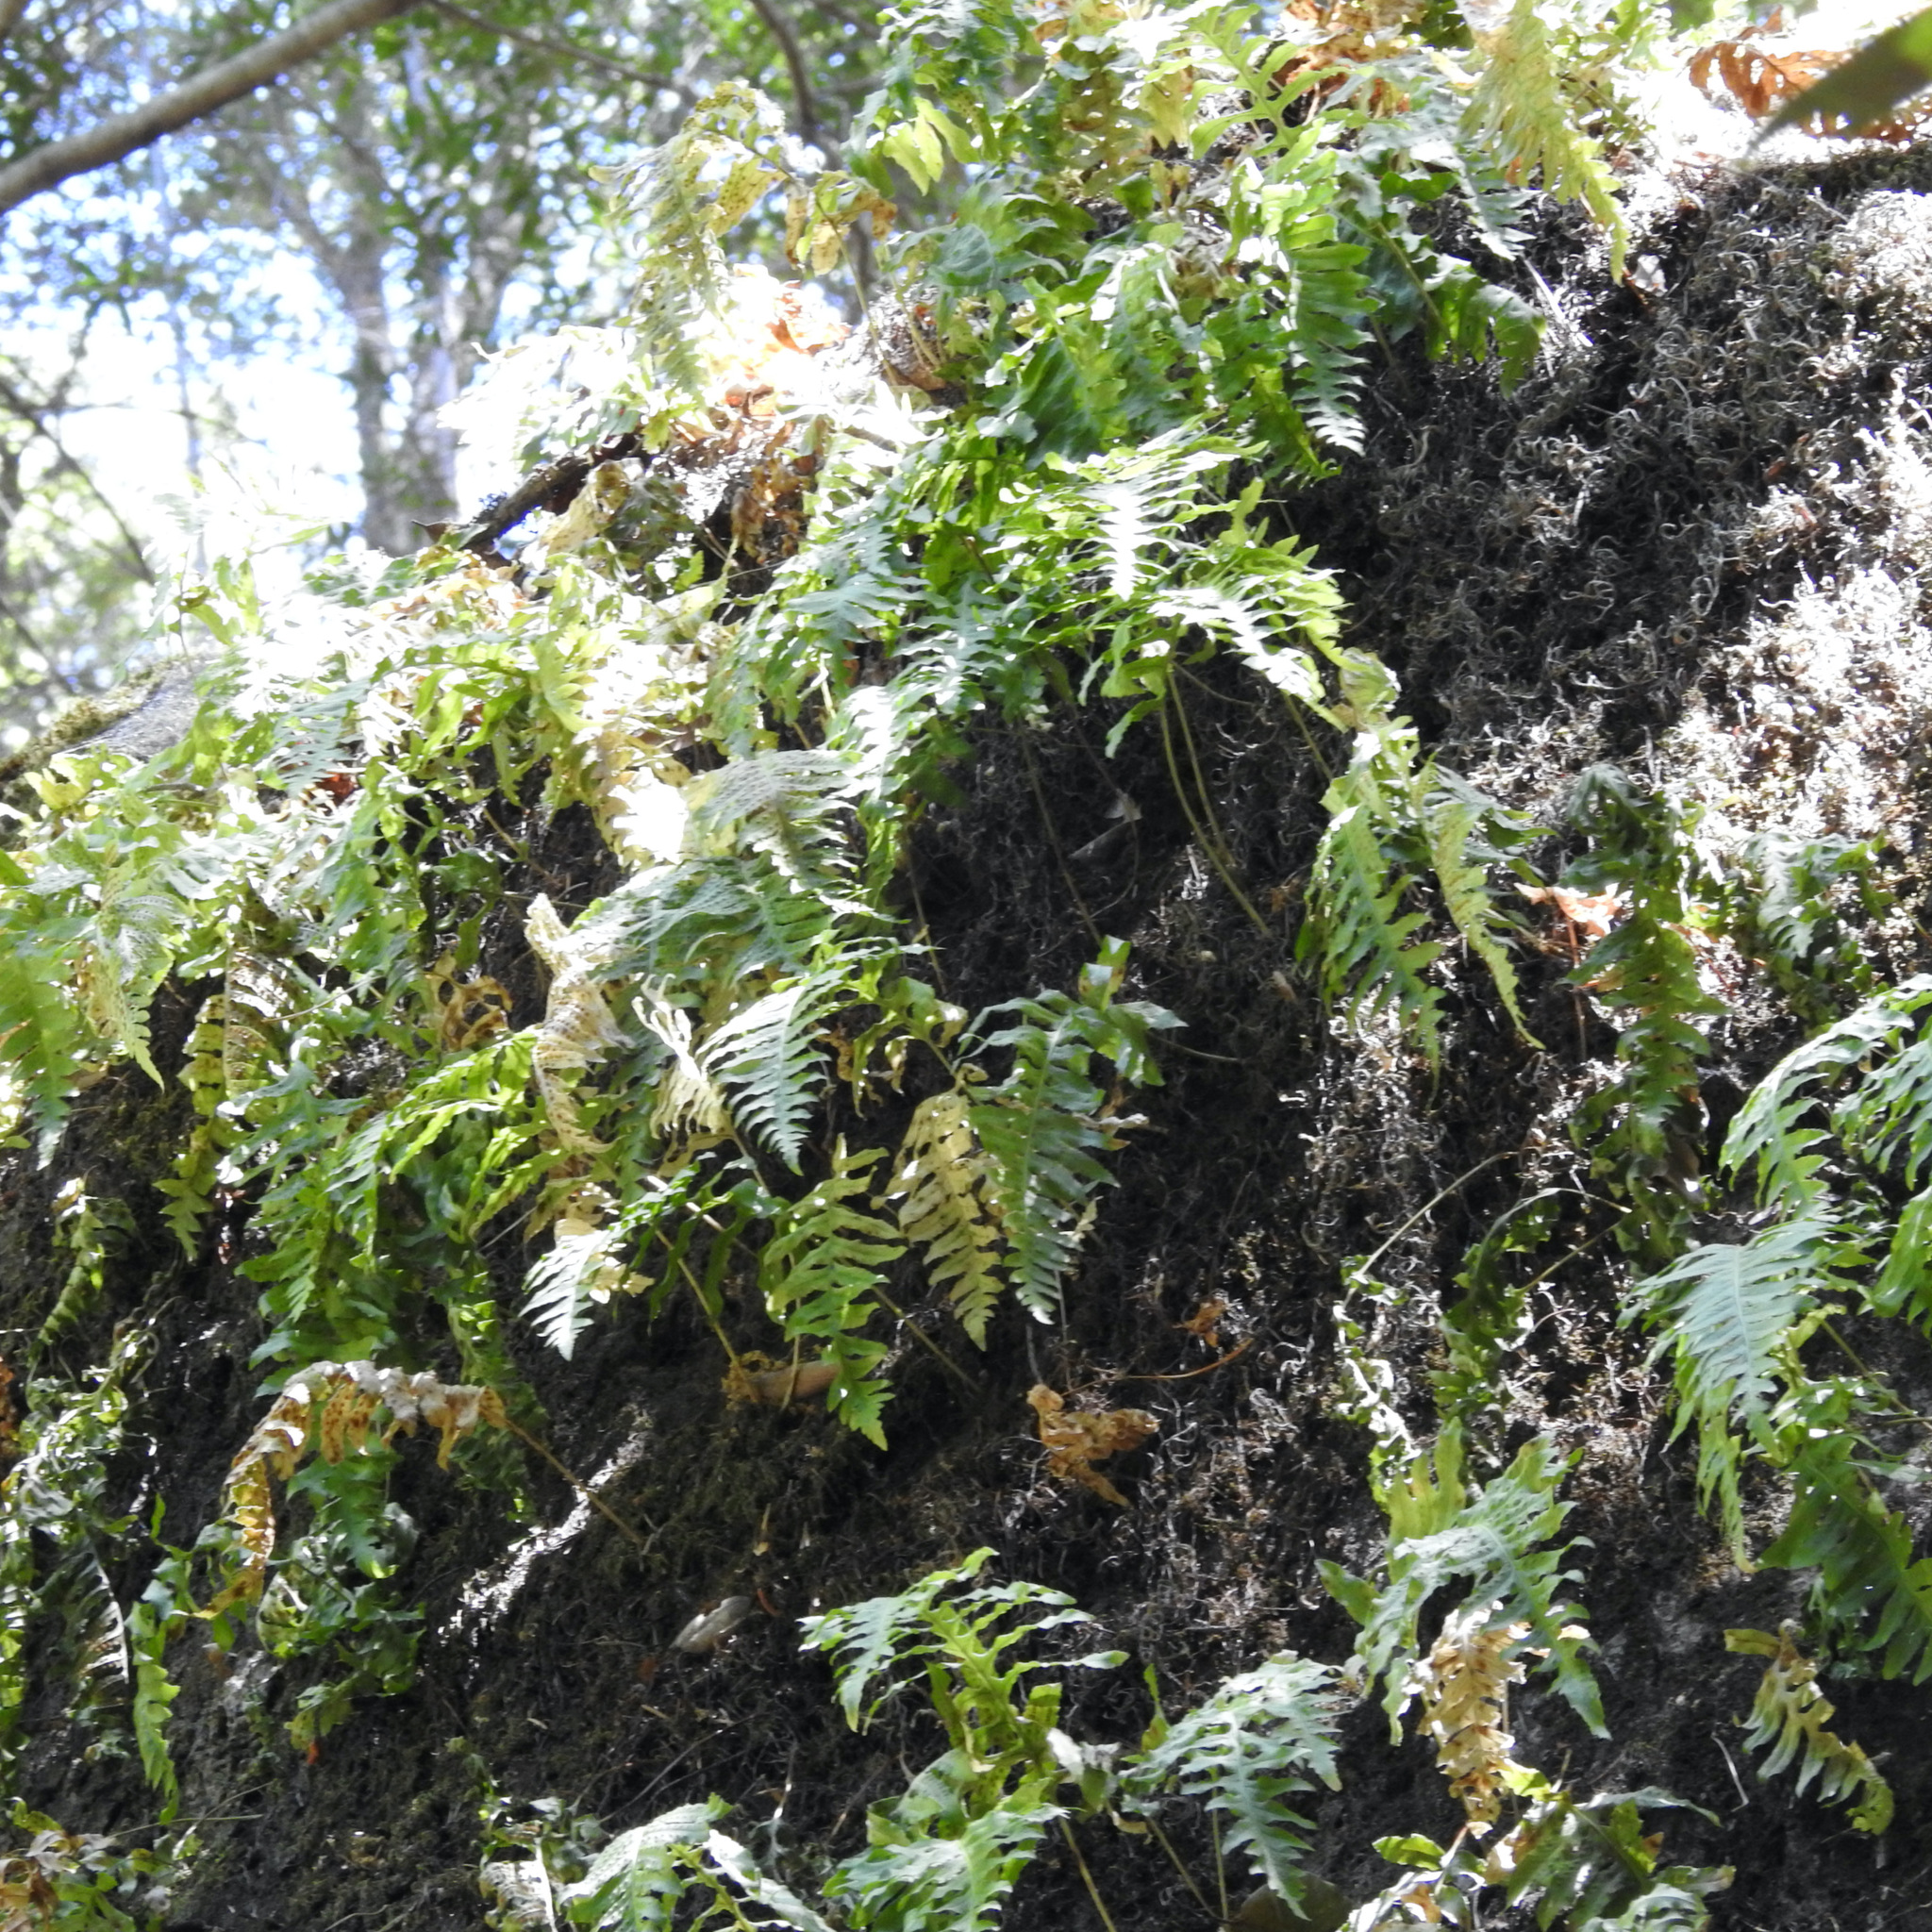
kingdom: Plantae
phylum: Tracheophyta
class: Polypodiopsida
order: Polypodiales
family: Polypodiaceae
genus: Polypodium
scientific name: Polypodium californicum
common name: California polypody
